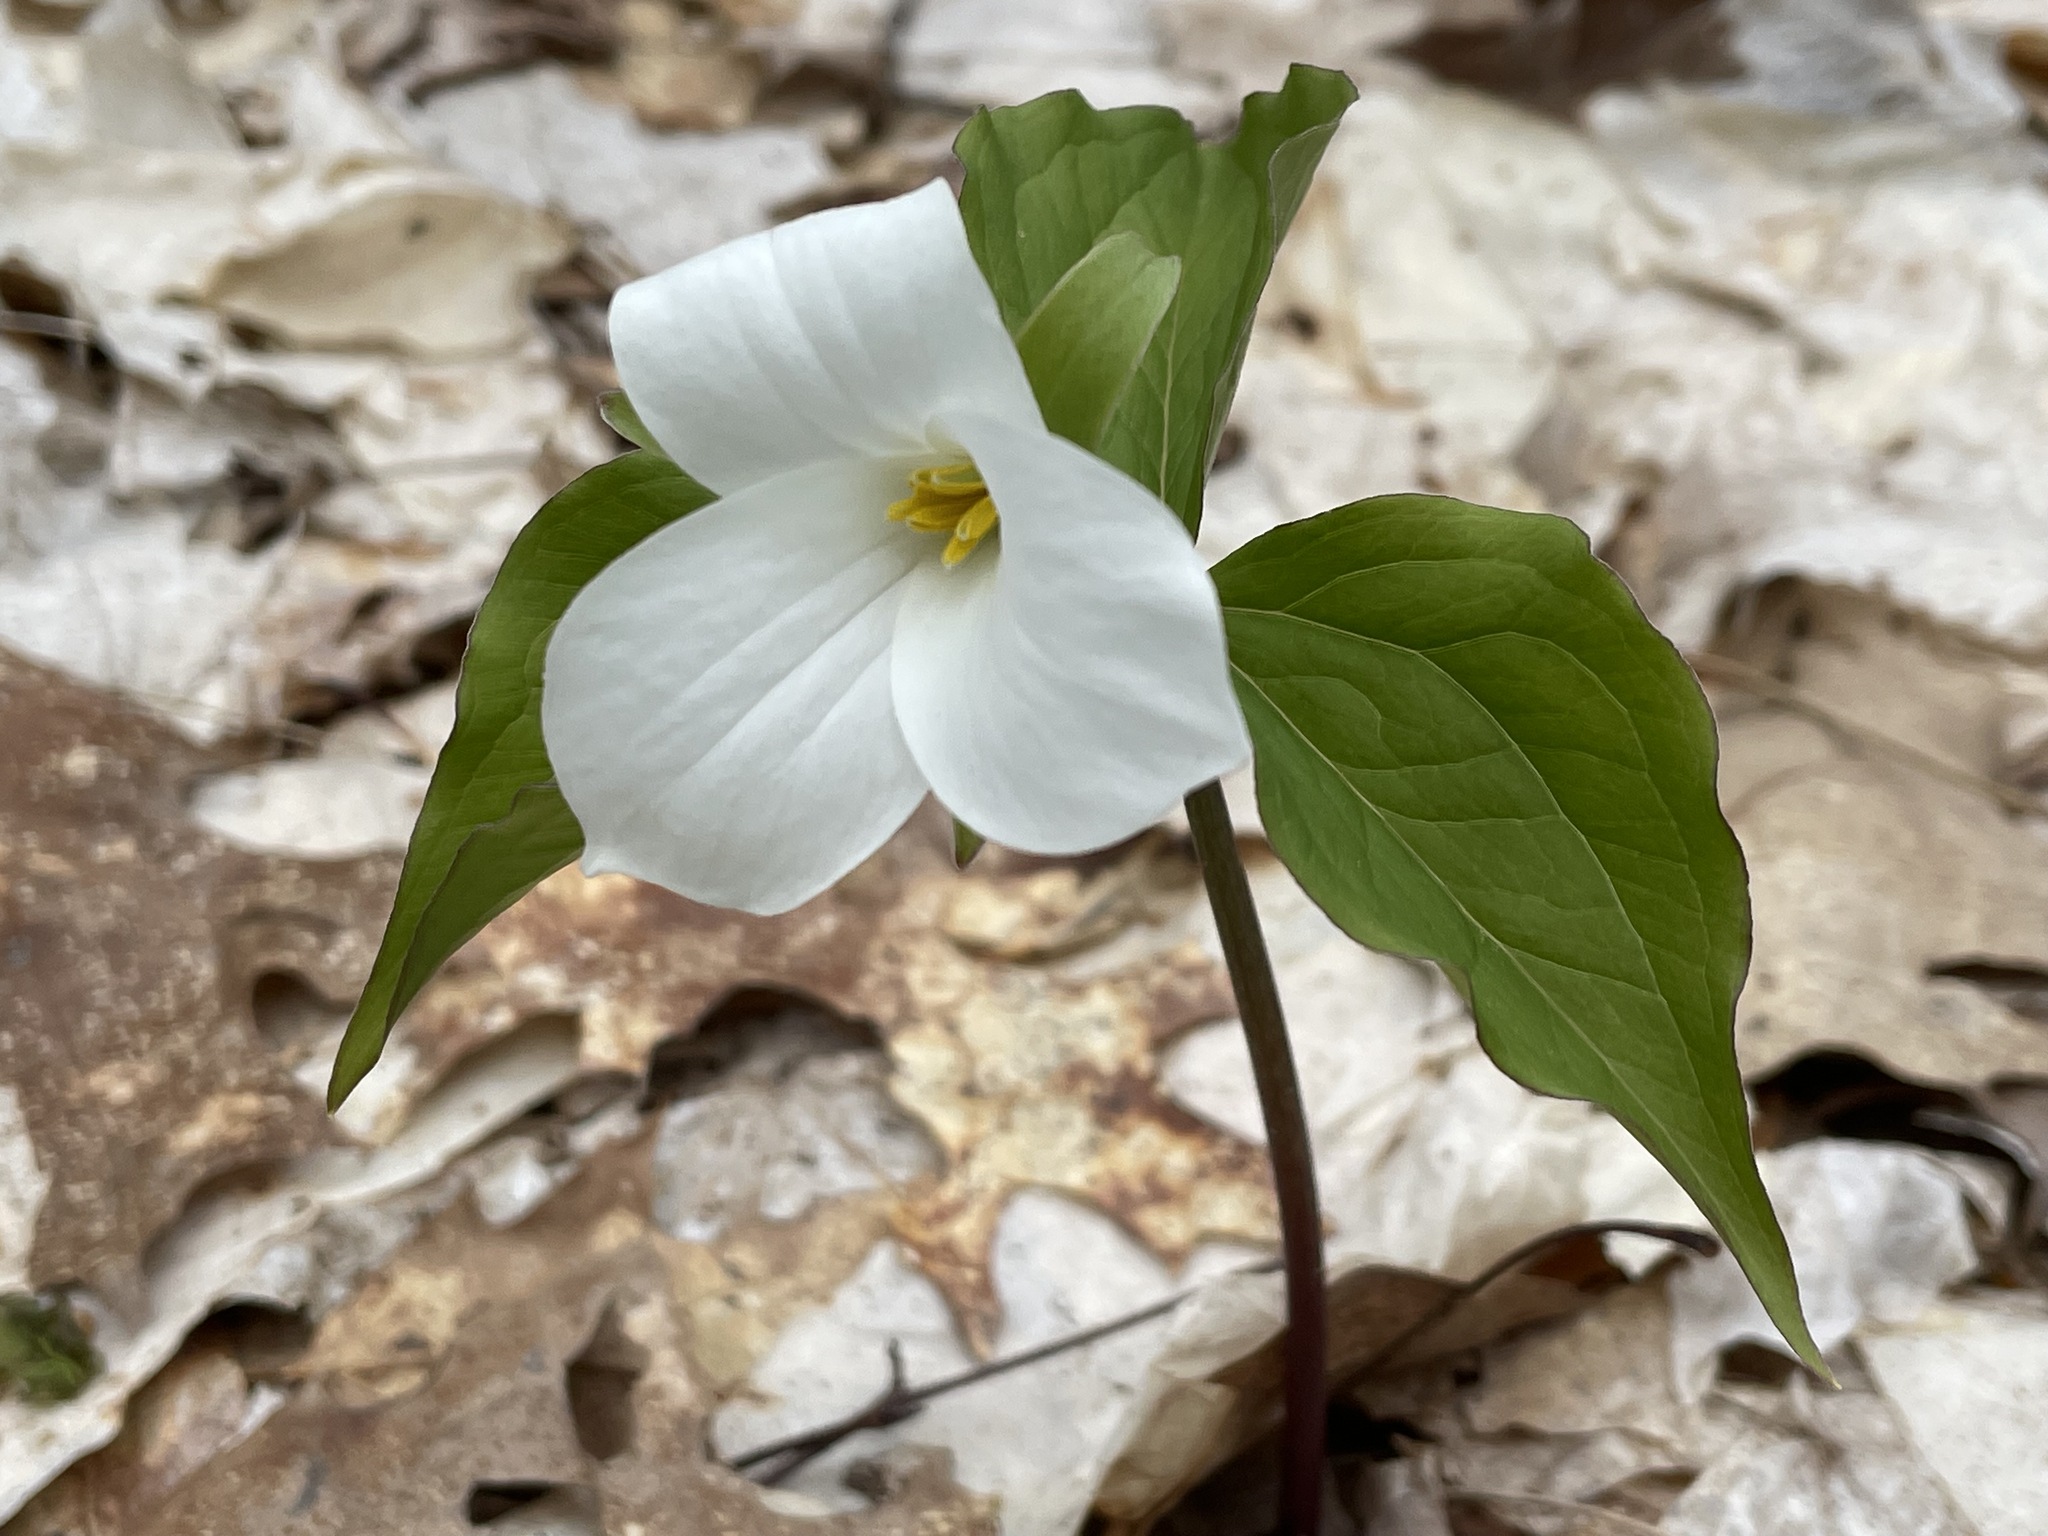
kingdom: Plantae
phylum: Tracheophyta
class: Liliopsida
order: Liliales
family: Melanthiaceae
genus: Trillium
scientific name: Trillium grandiflorum
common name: Great white trillium
